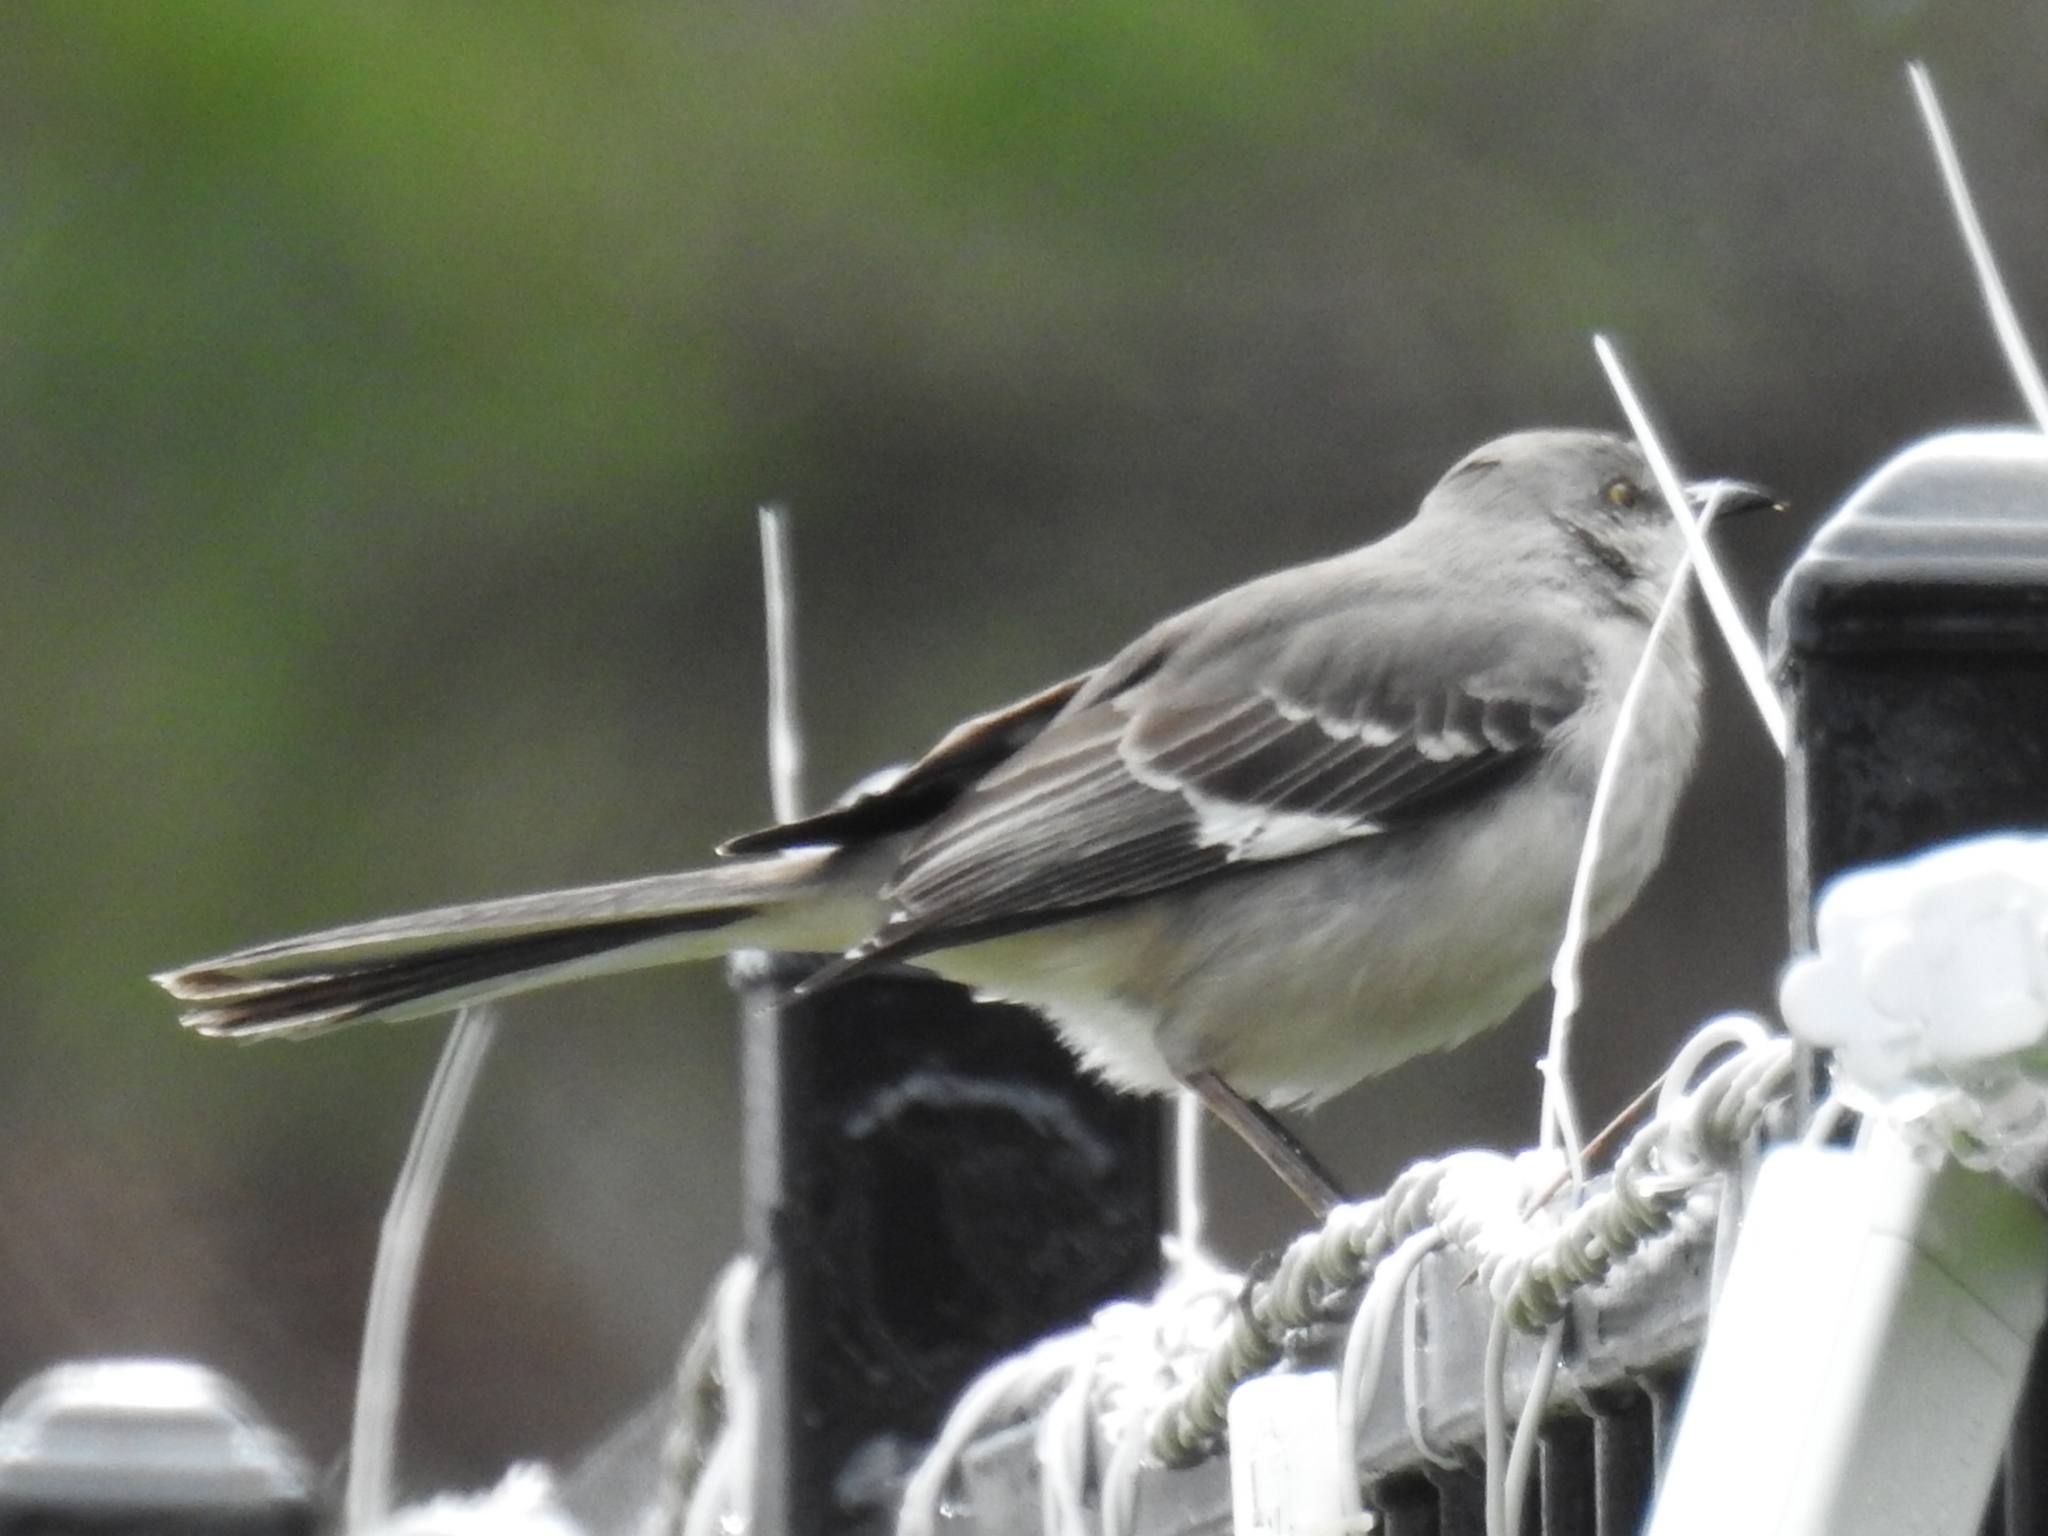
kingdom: Animalia
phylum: Chordata
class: Aves
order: Passeriformes
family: Mimidae
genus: Mimus
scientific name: Mimus polyglottos
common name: Northern mockingbird
